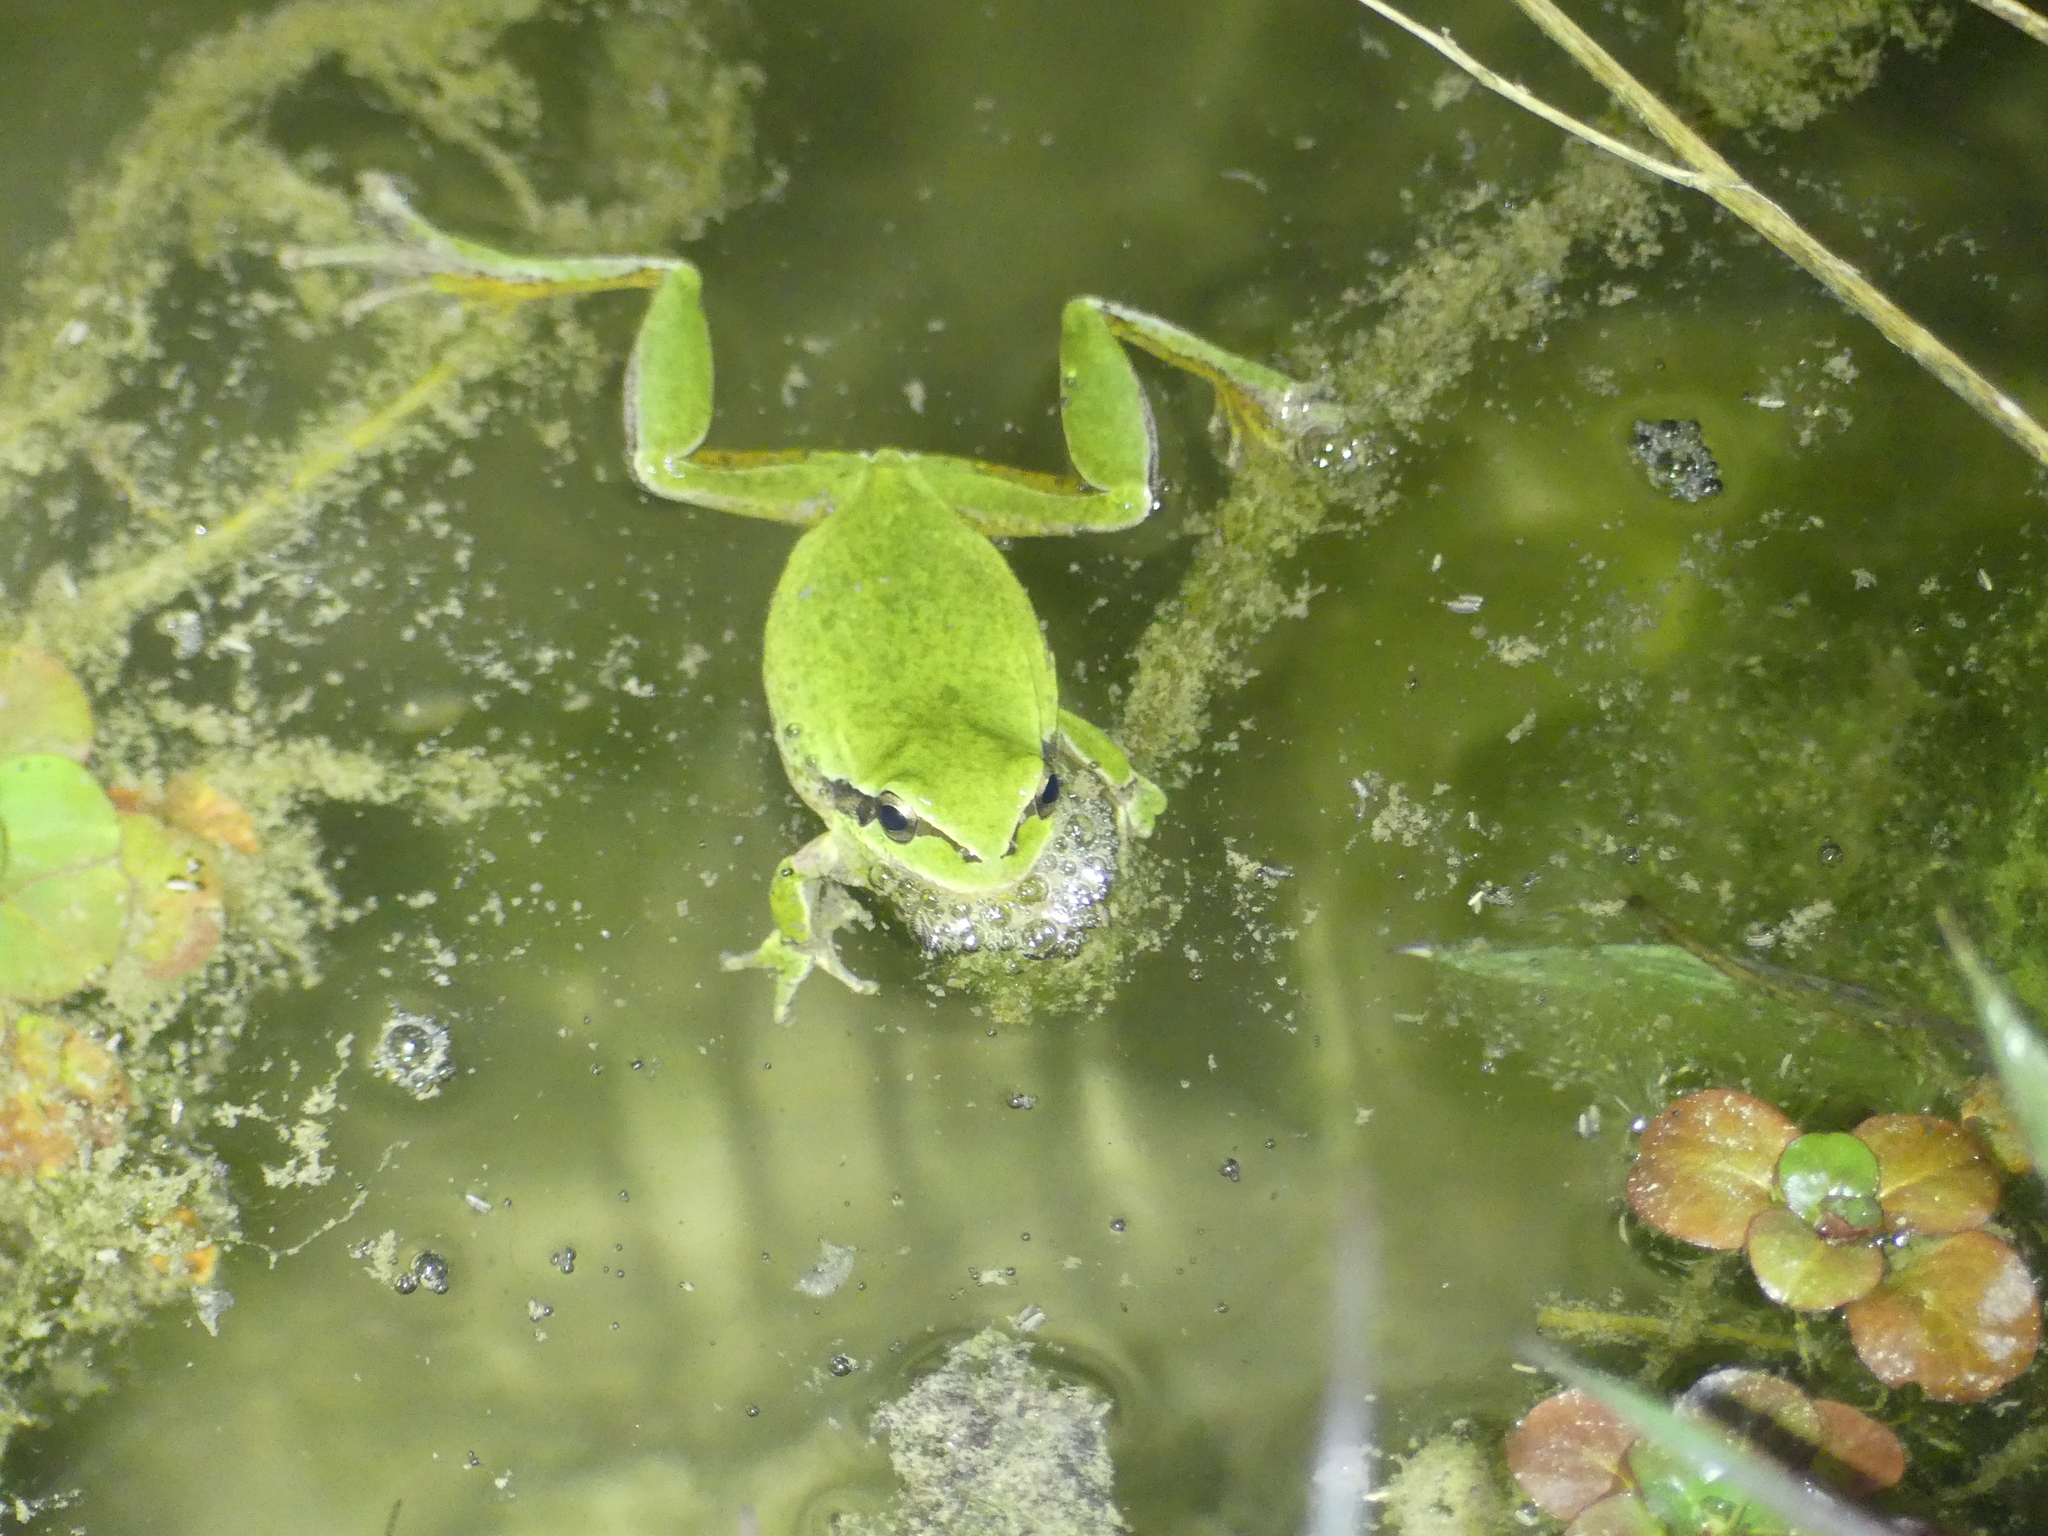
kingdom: Animalia
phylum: Chordata
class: Amphibia
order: Anura
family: Hylidae
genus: Hyla
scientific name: Hyla meridionalis
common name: Stripeless tree frog
